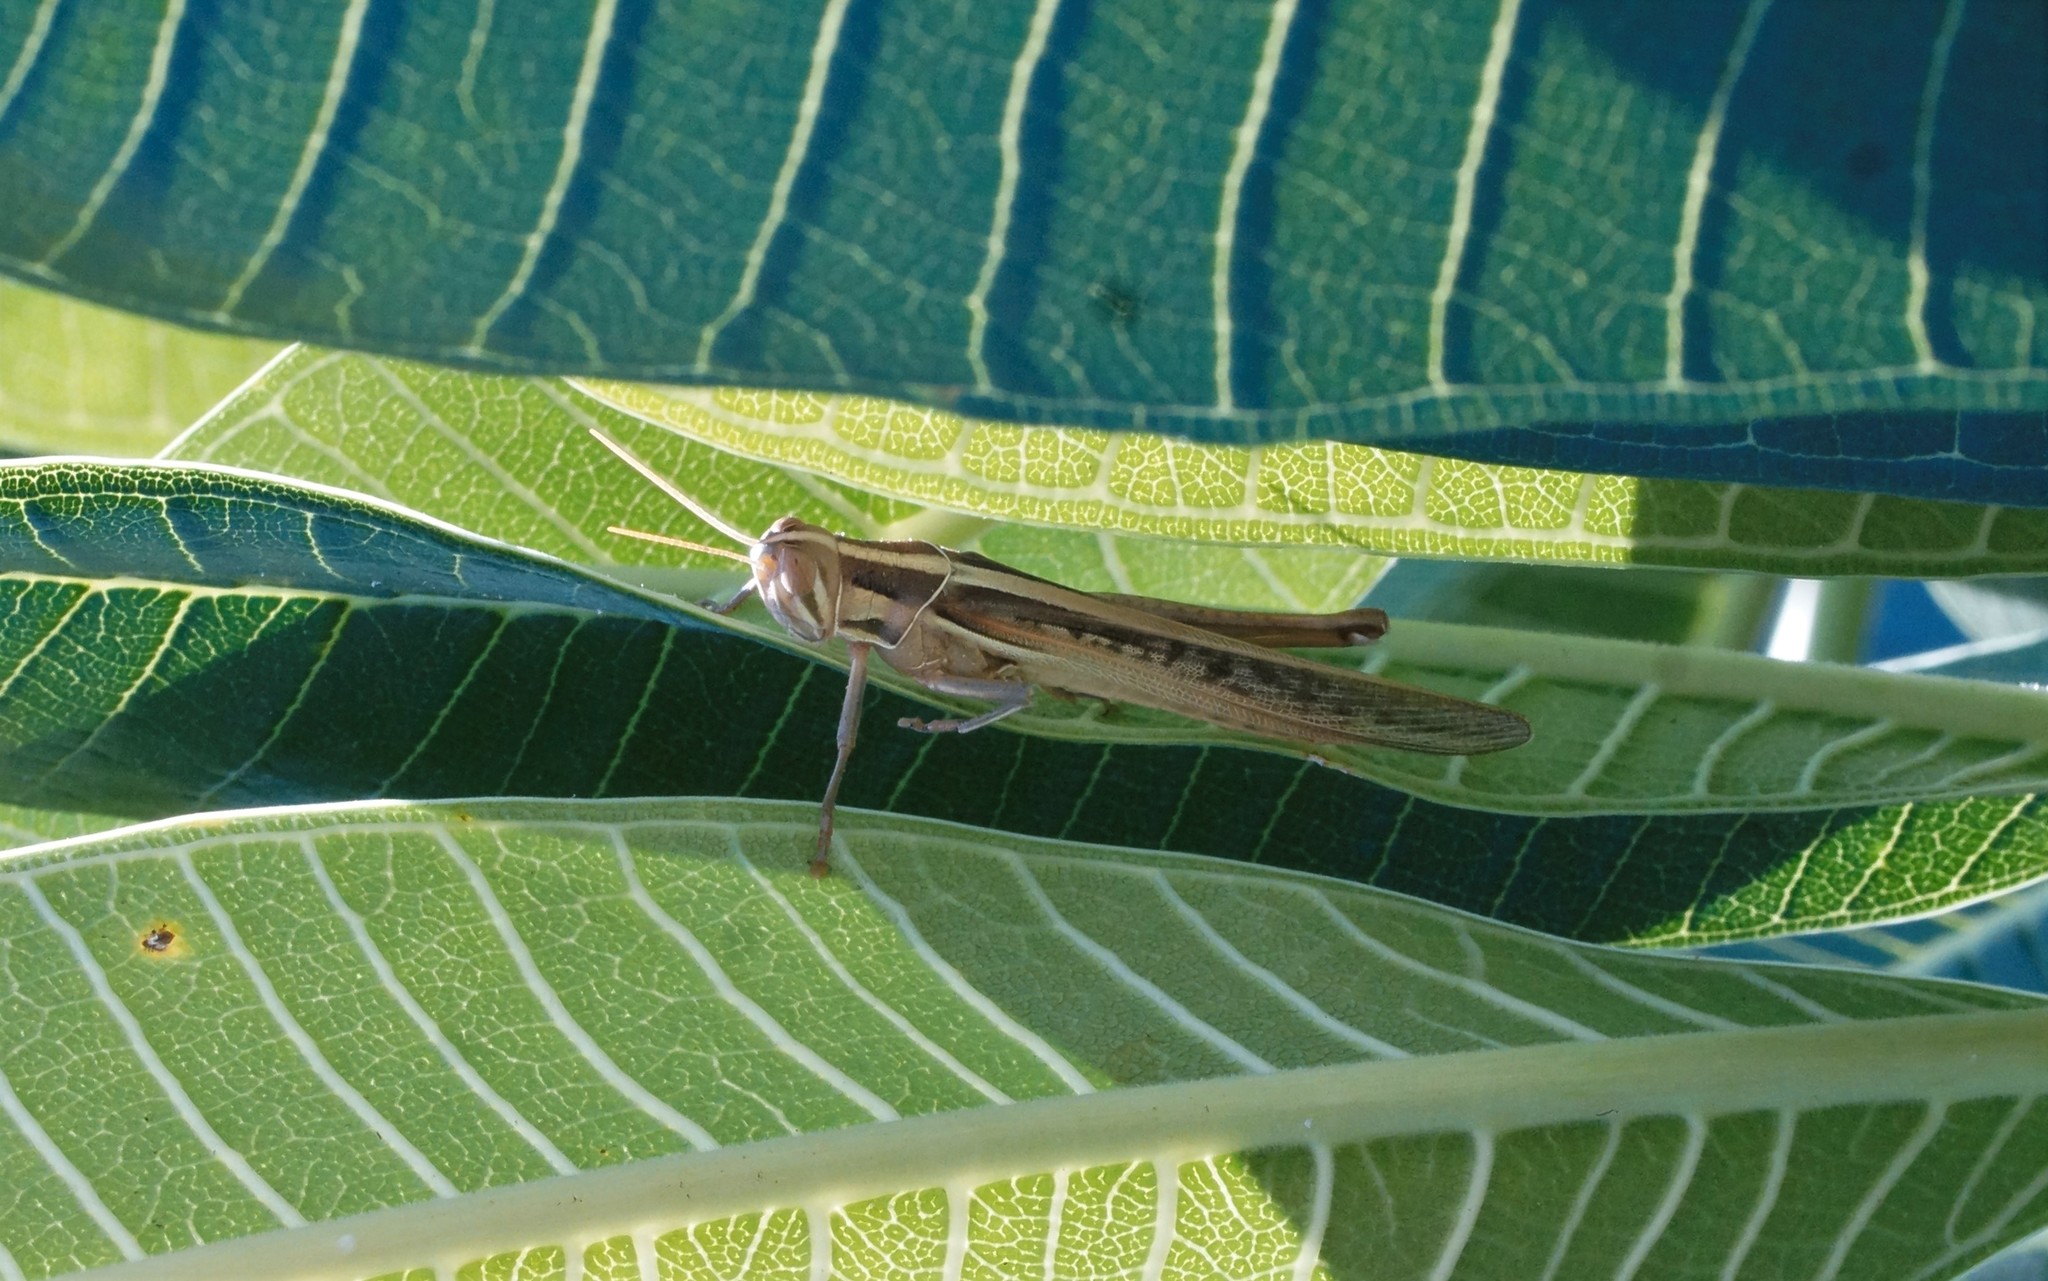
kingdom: Animalia
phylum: Arthropoda
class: Insecta
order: Orthoptera
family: Acrididae
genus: Austracris
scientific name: Austracris guttulosa
